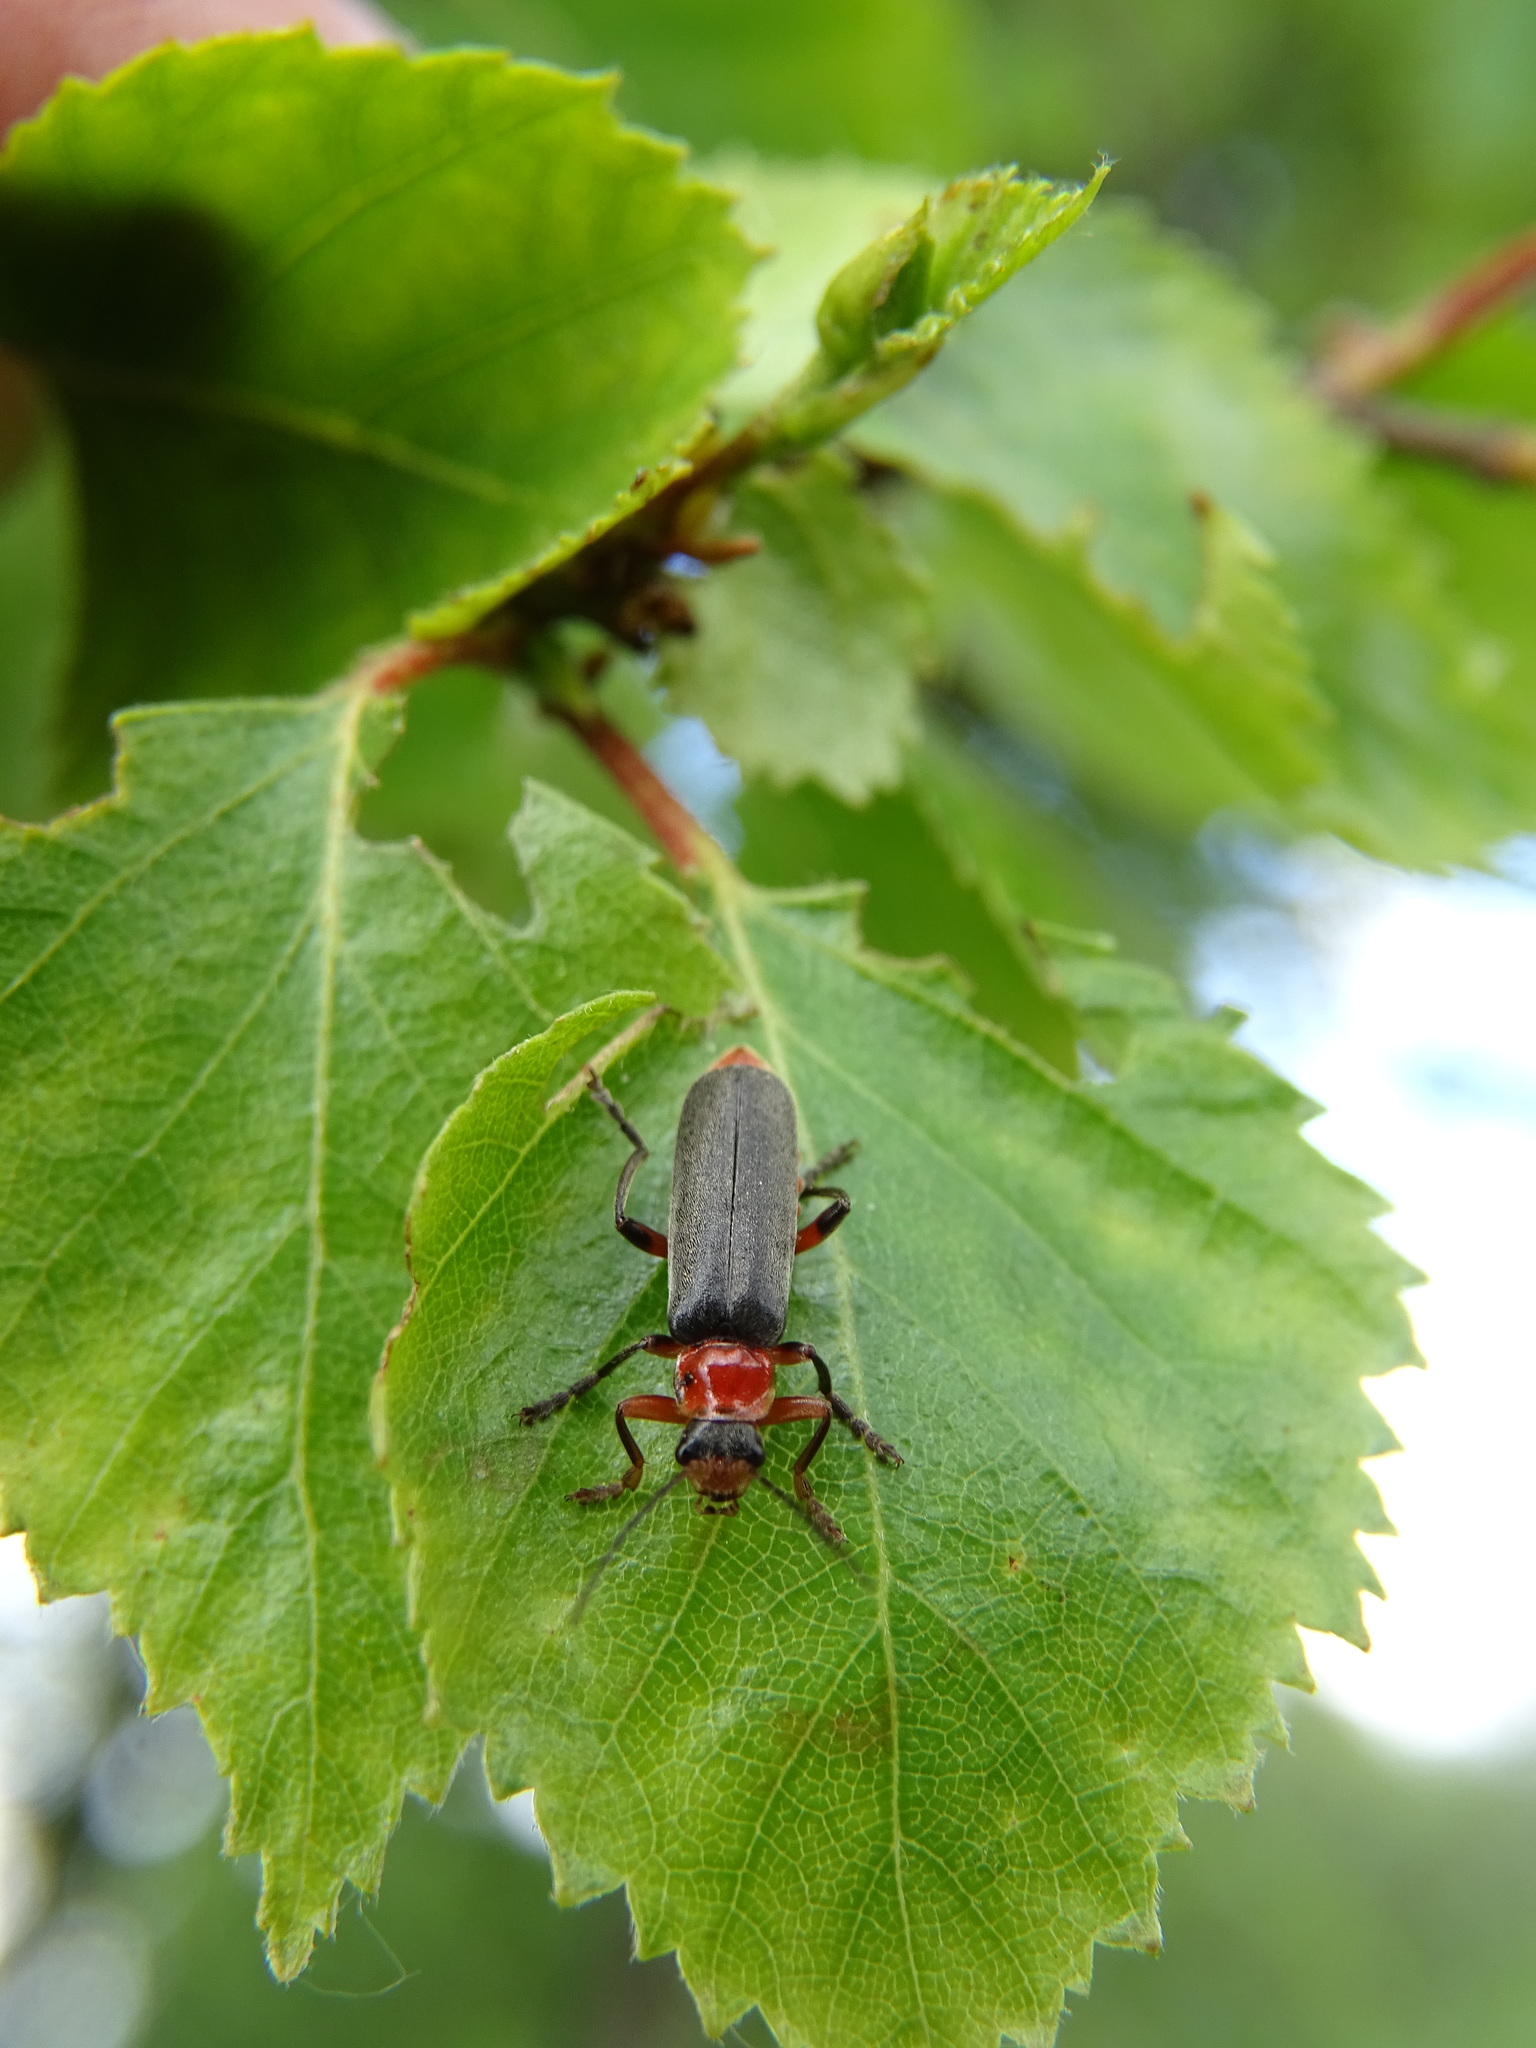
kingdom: Animalia
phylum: Arthropoda
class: Insecta
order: Coleoptera
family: Cantharidae
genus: Cantharis
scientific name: Cantharis pellucida
